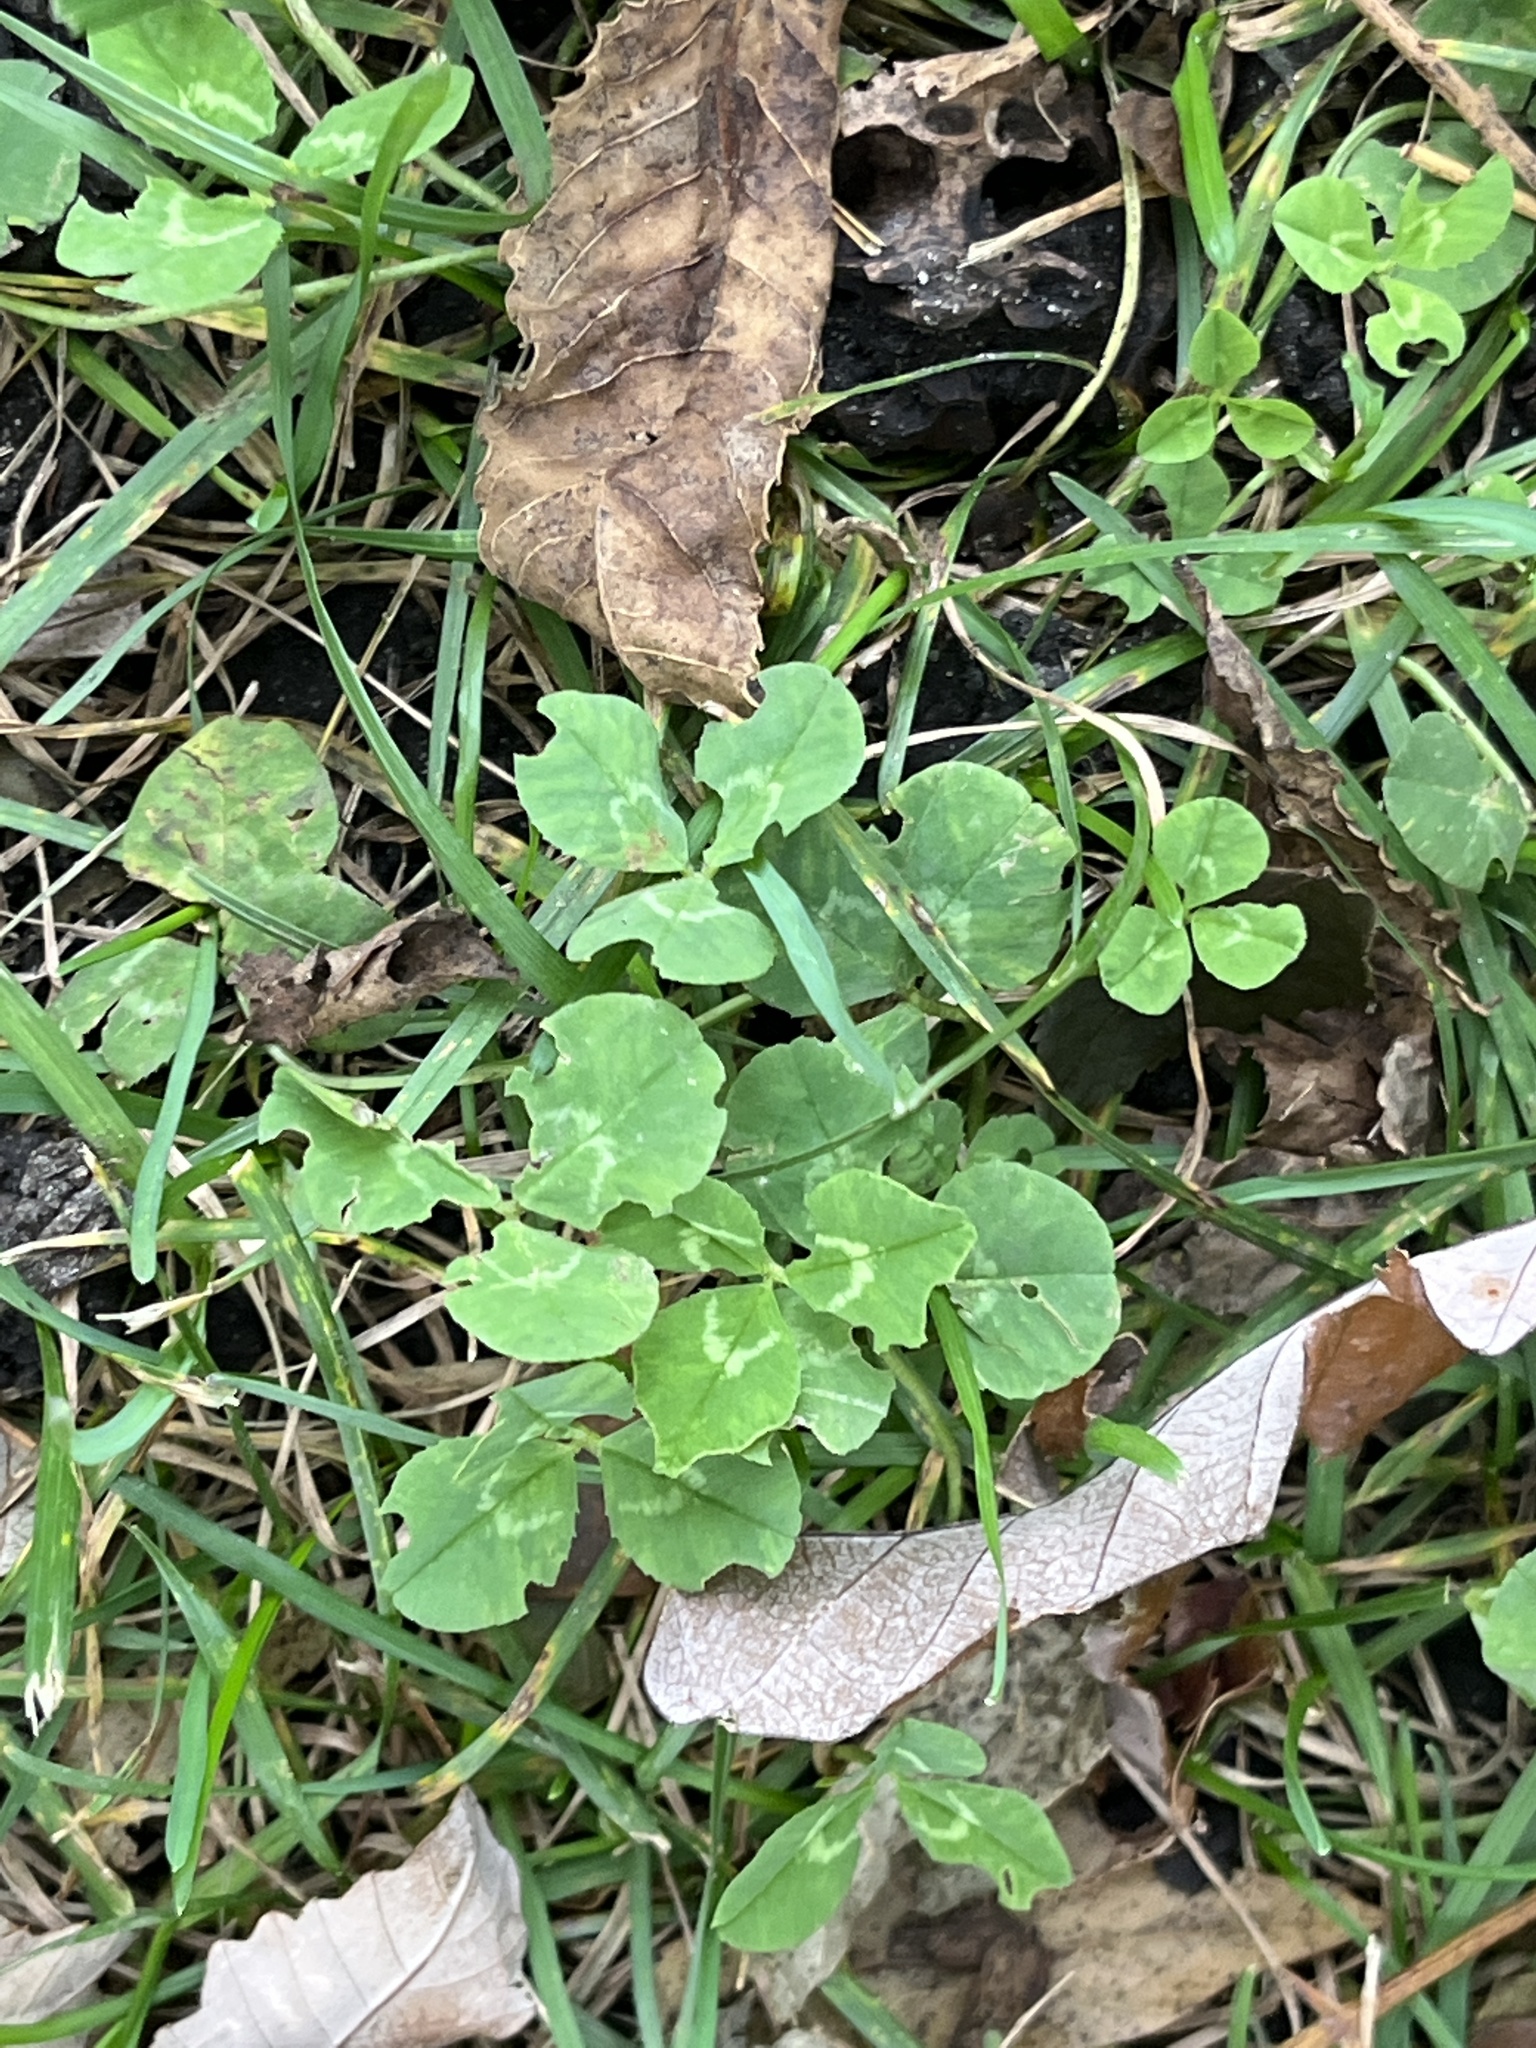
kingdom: Plantae
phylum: Tracheophyta
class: Magnoliopsida
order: Fabales
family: Fabaceae
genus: Trifolium
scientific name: Trifolium repens
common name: White clover
